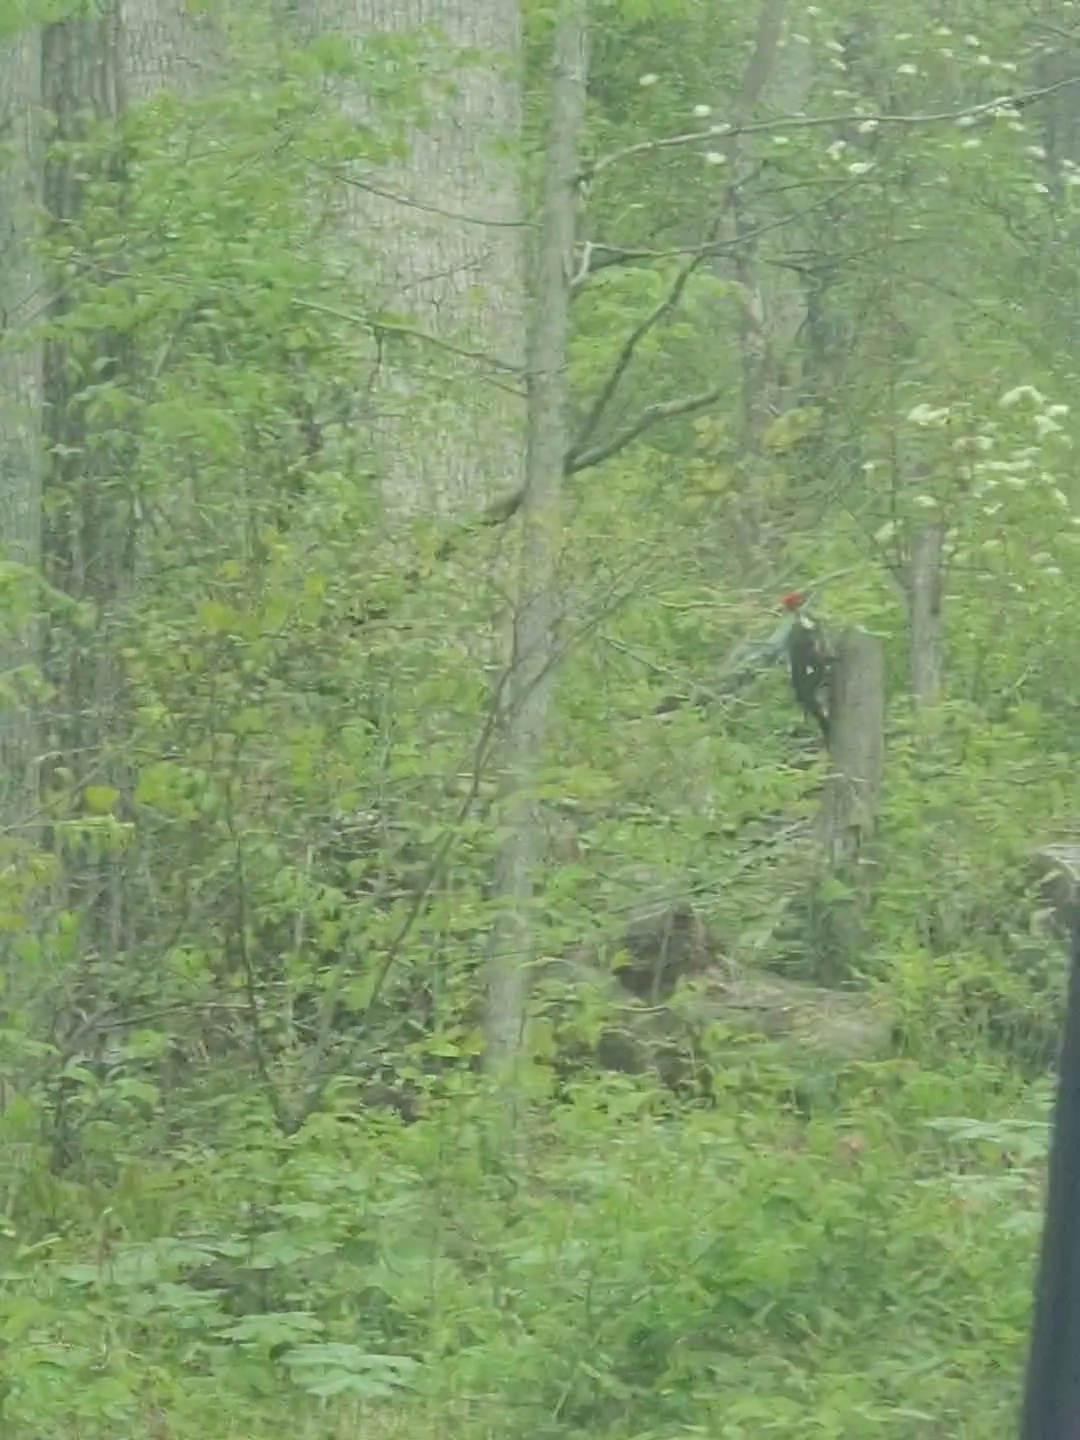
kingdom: Animalia
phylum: Chordata
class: Aves
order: Piciformes
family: Picidae
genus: Dryocopus
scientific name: Dryocopus pileatus
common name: Pileated woodpecker
